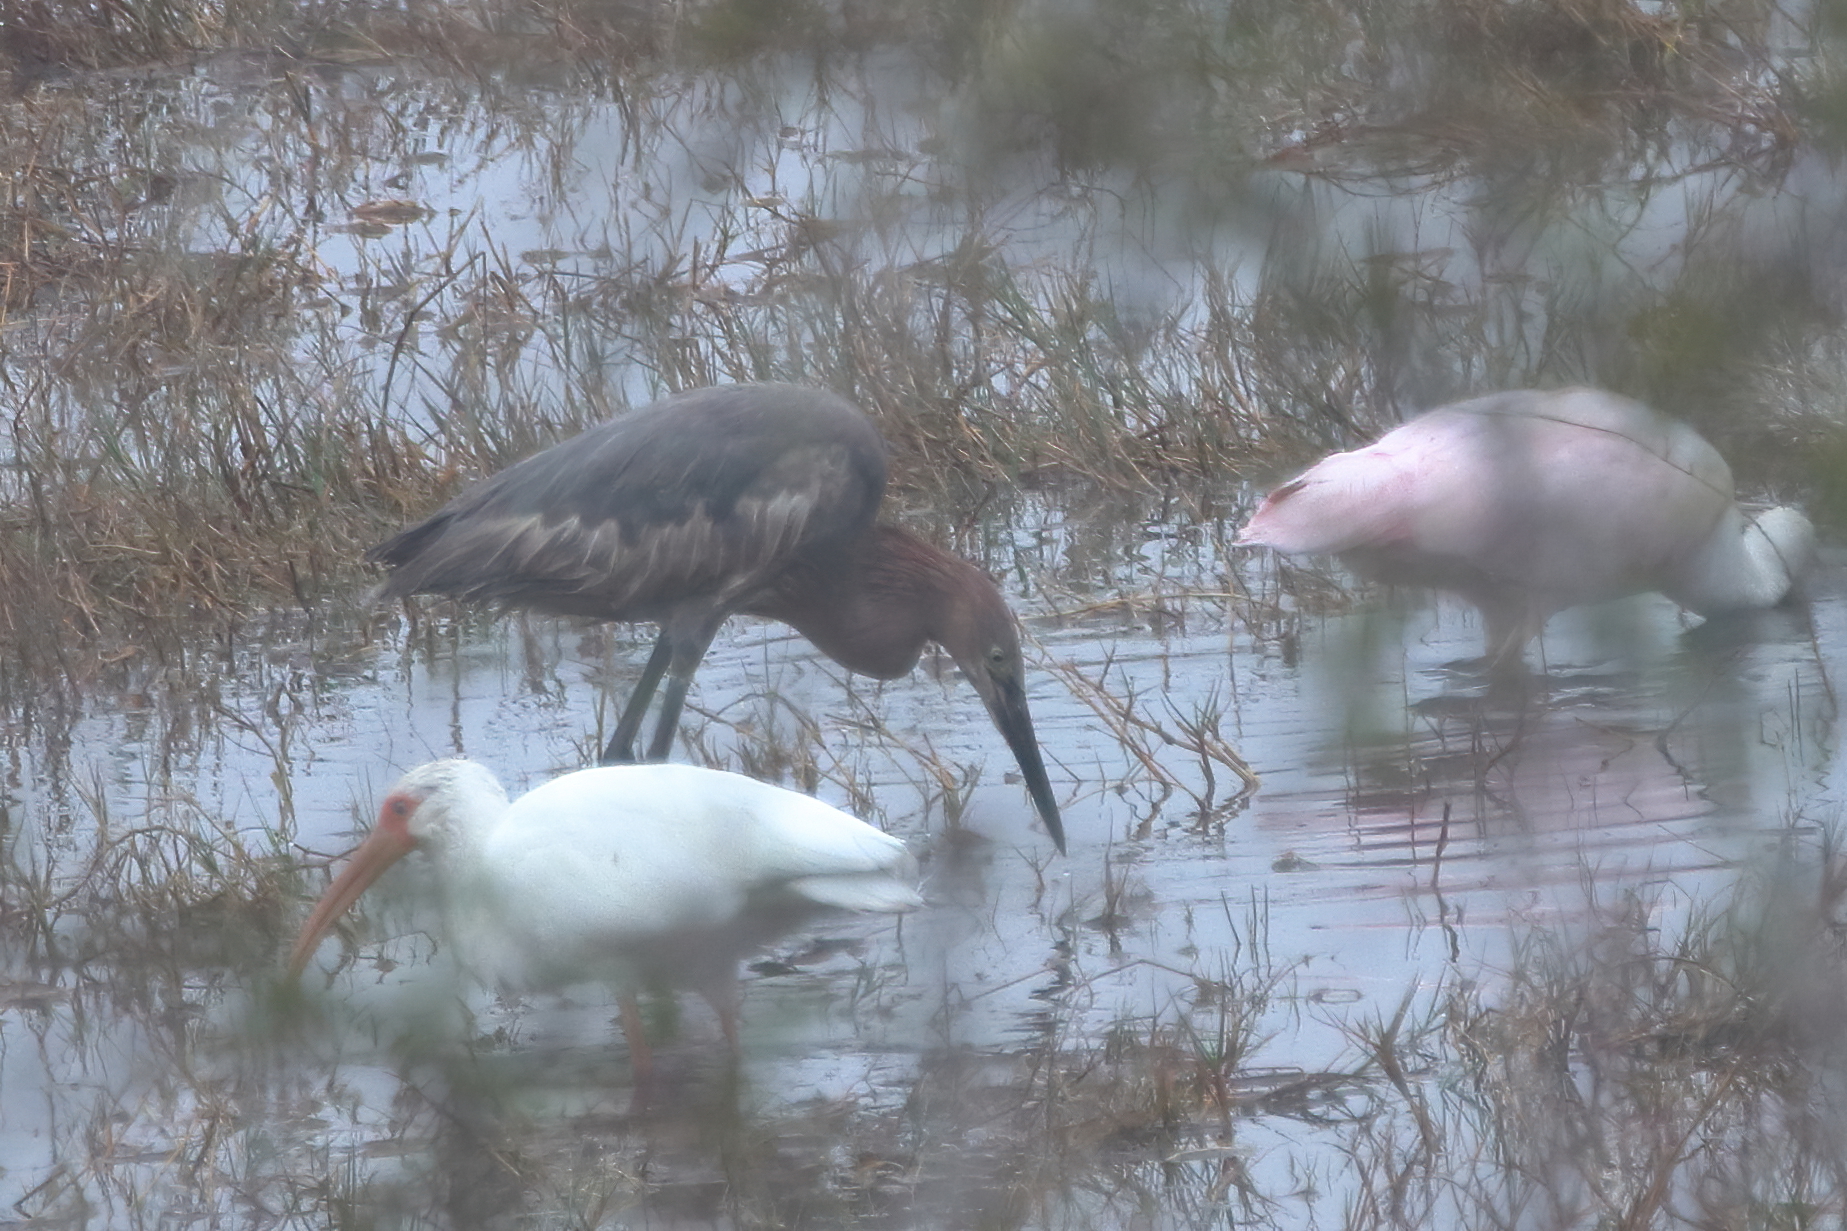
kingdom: Animalia
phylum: Chordata
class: Aves
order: Pelecaniformes
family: Ardeidae
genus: Egretta
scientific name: Egretta rufescens
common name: Reddish egret
